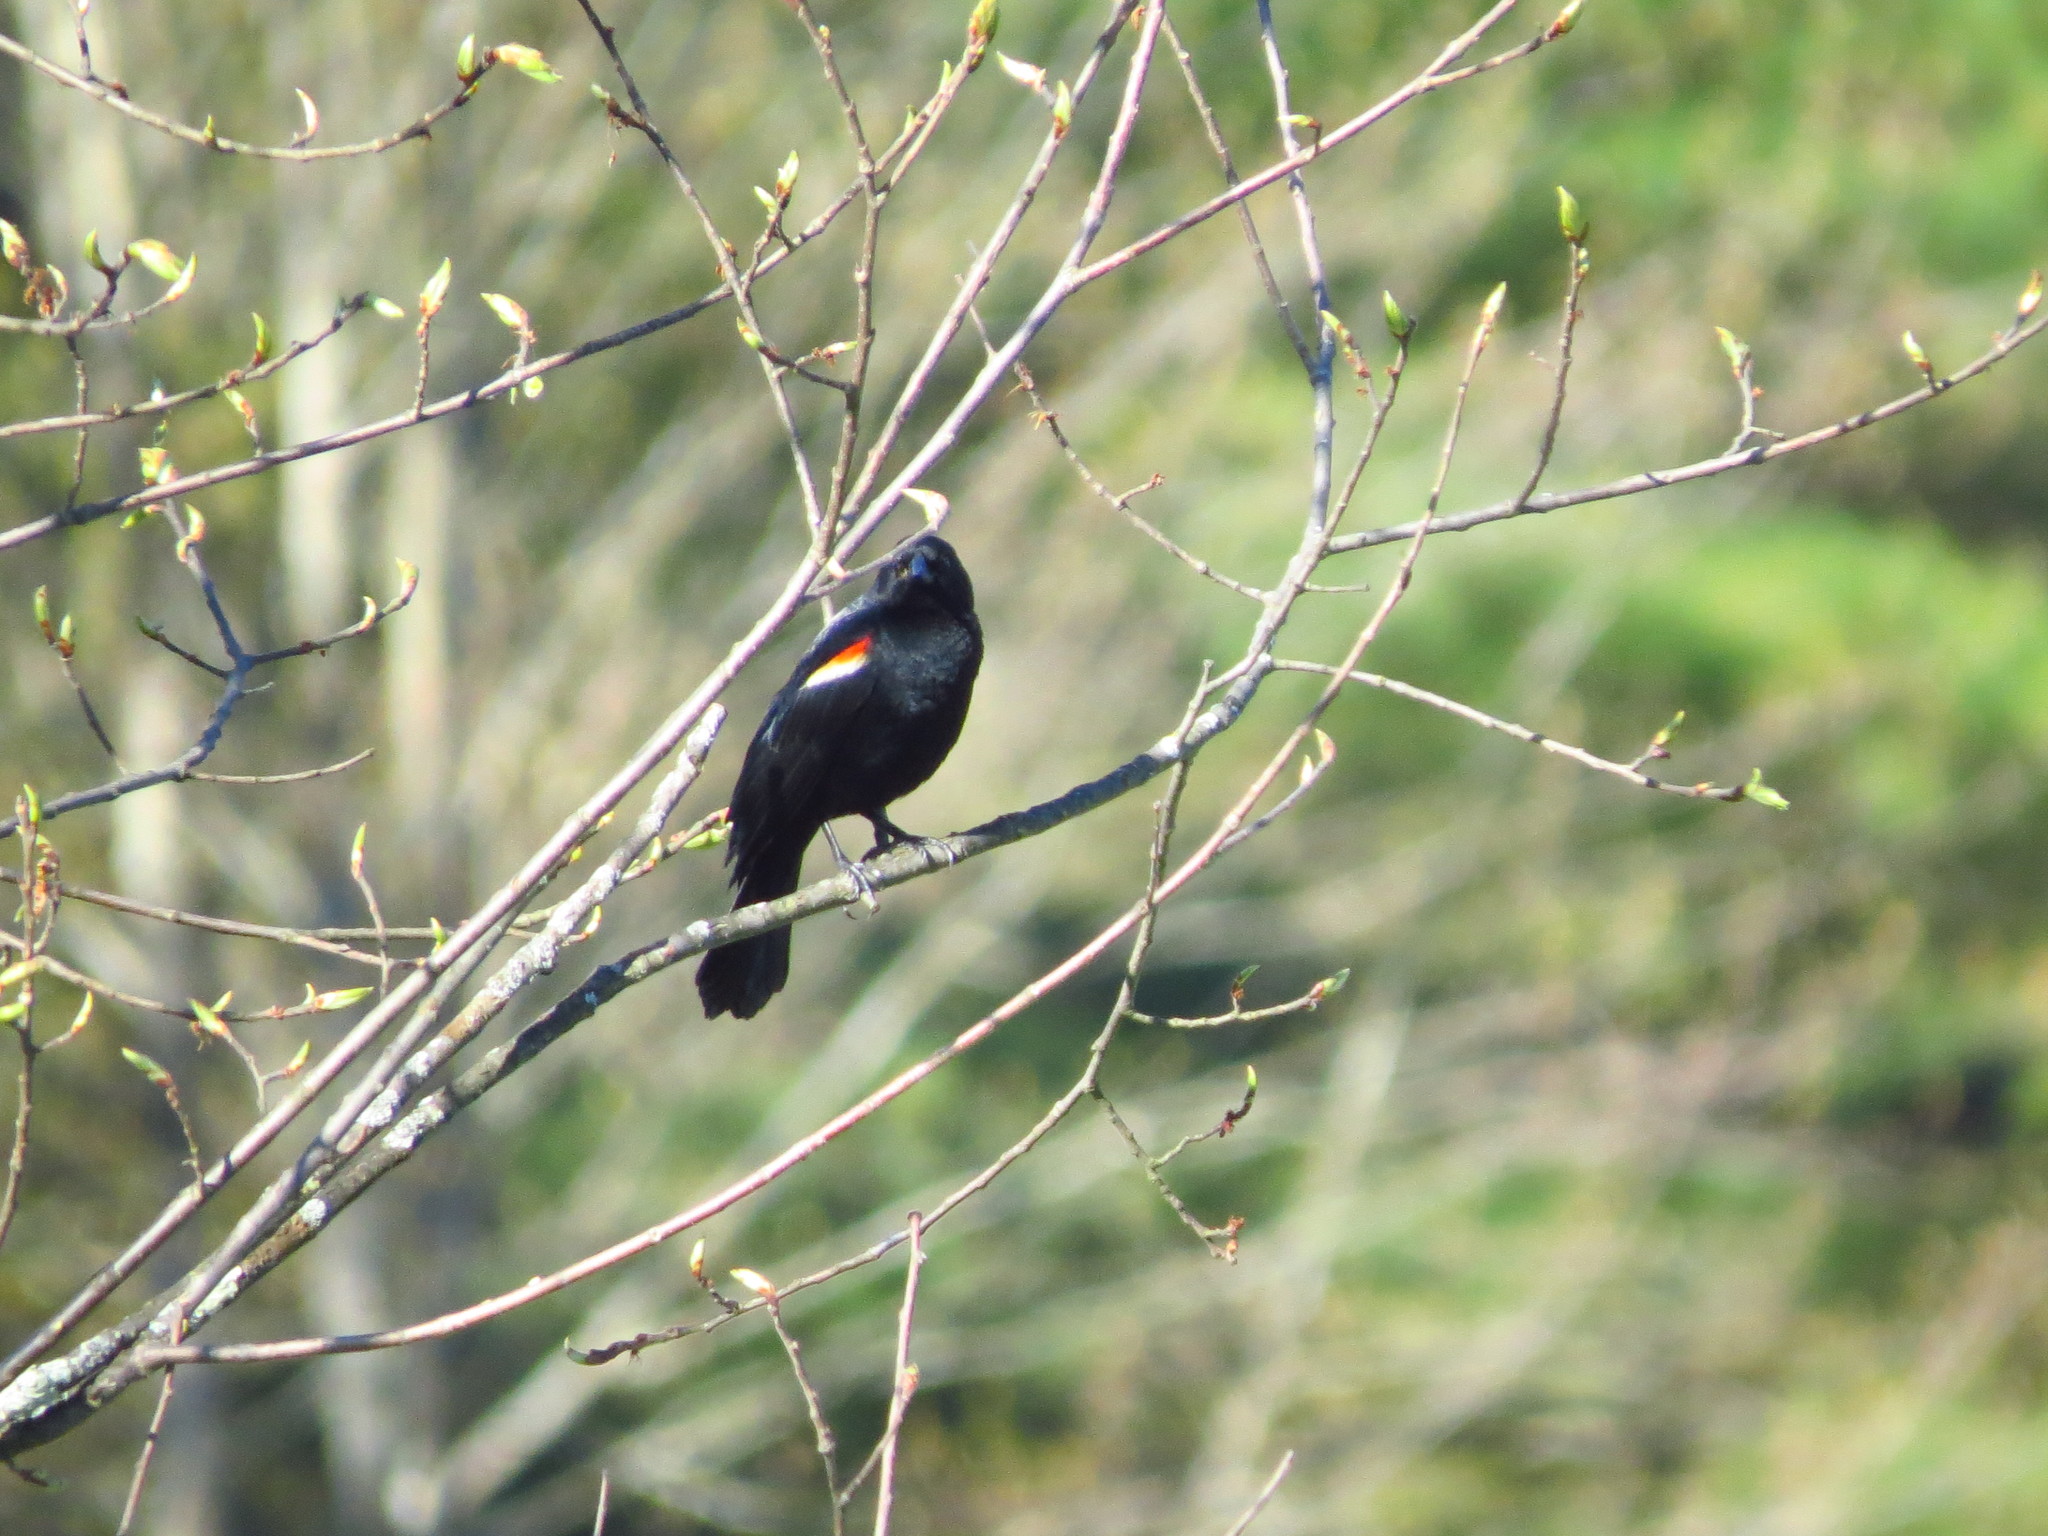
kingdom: Animalia
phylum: Chordata
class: Aves
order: Passeriformes
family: Icteridae
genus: Agelaius
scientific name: Agelaius phoeniceus
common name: Red-winged blackbird
